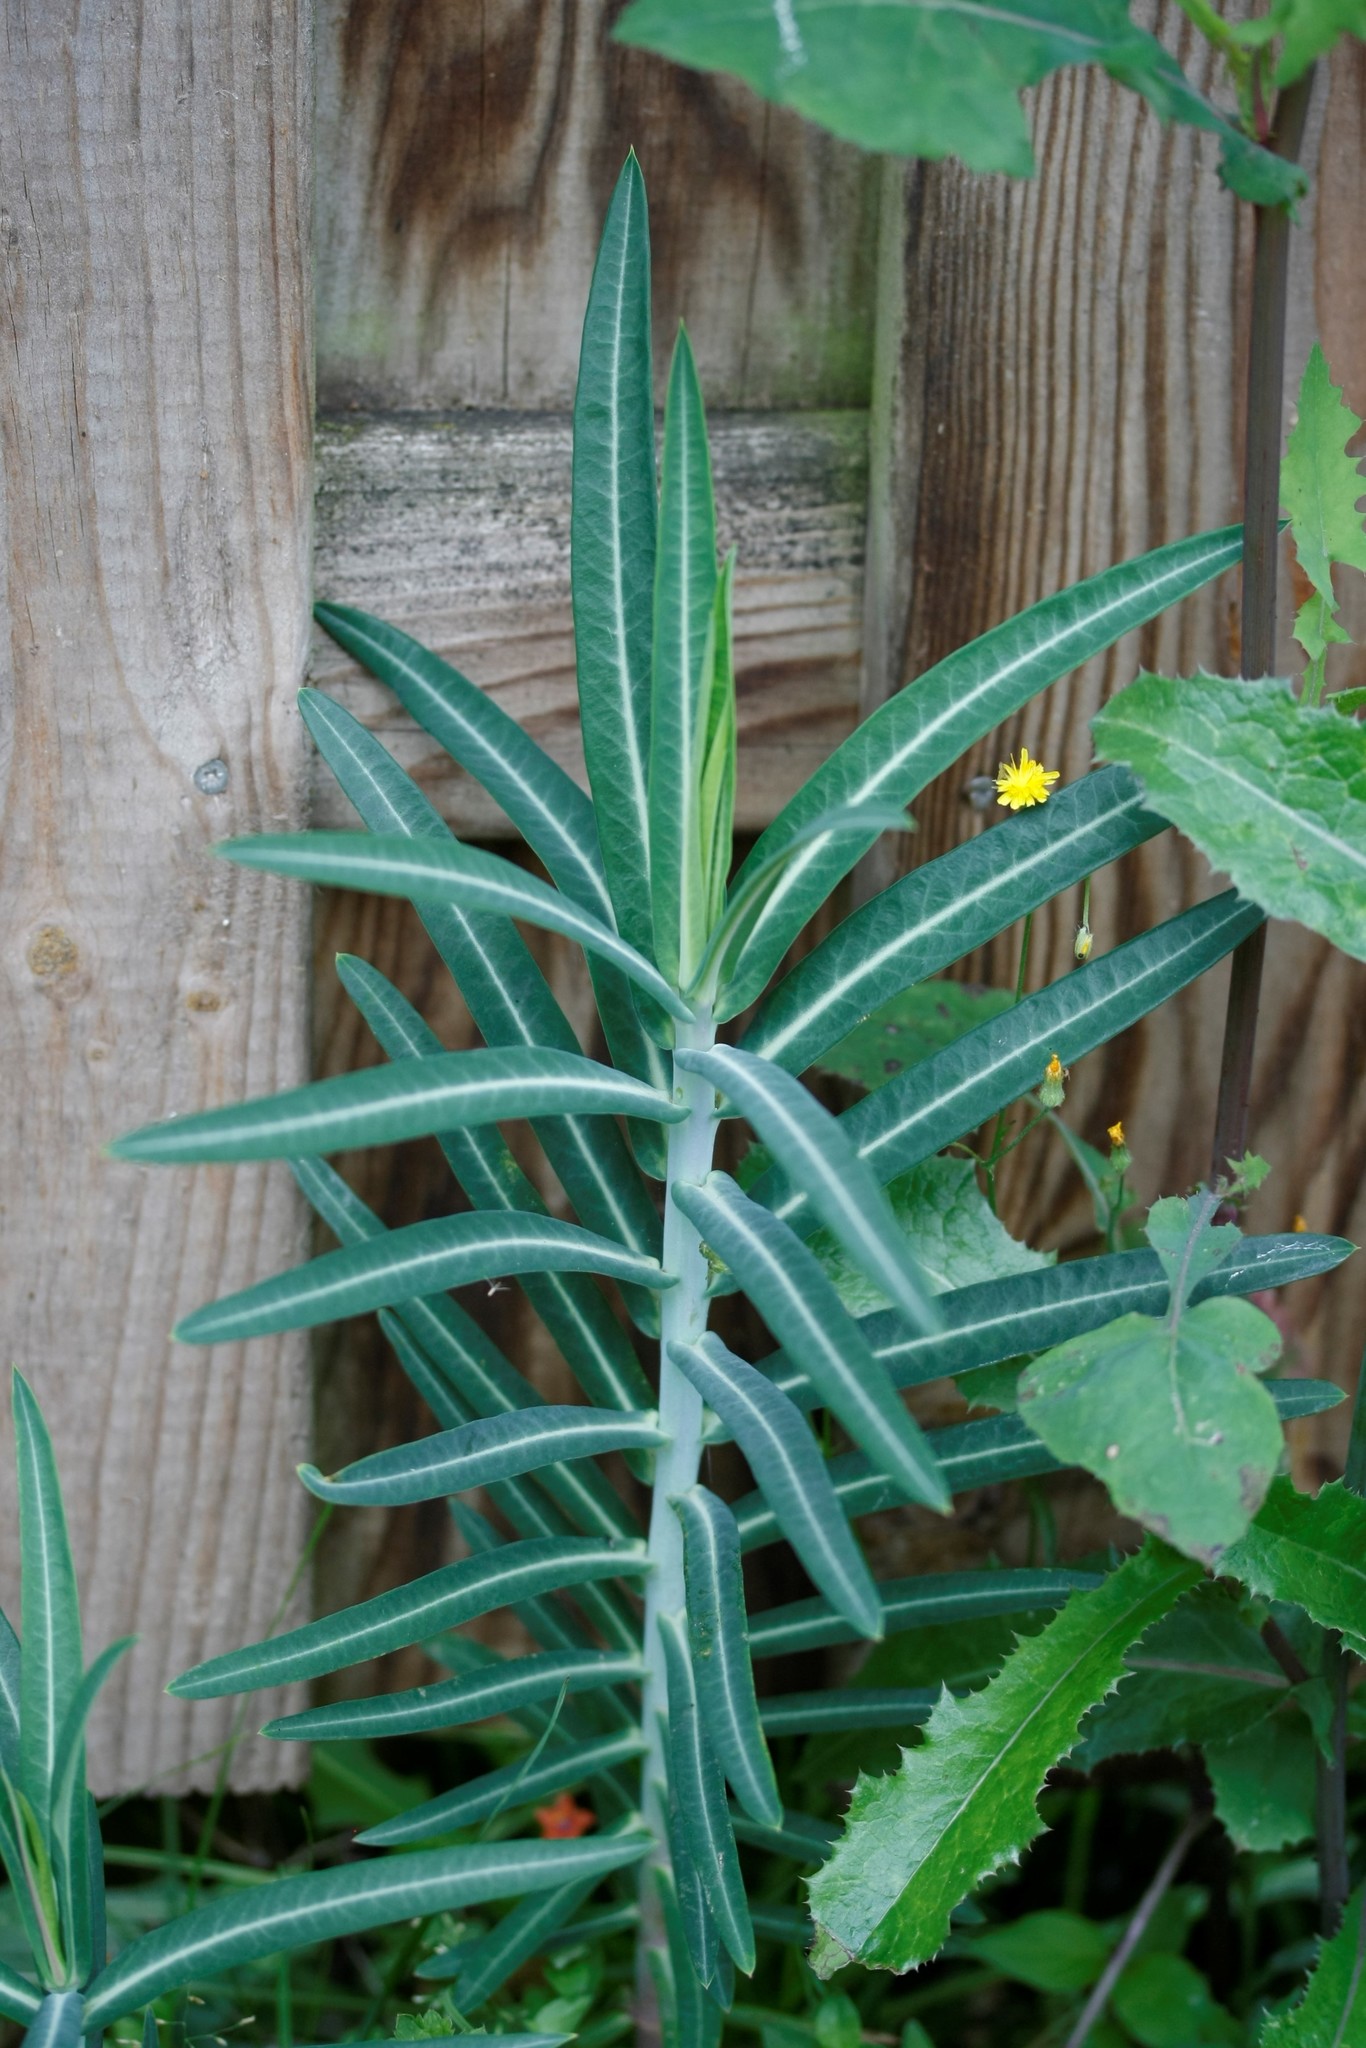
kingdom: Plantae
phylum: Tracheophyta
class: Magnoliopsida
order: Malpighiales
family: Euphorbiaceae
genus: Euphorbia
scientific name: Euphorbia lathyris
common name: Caper spurge
